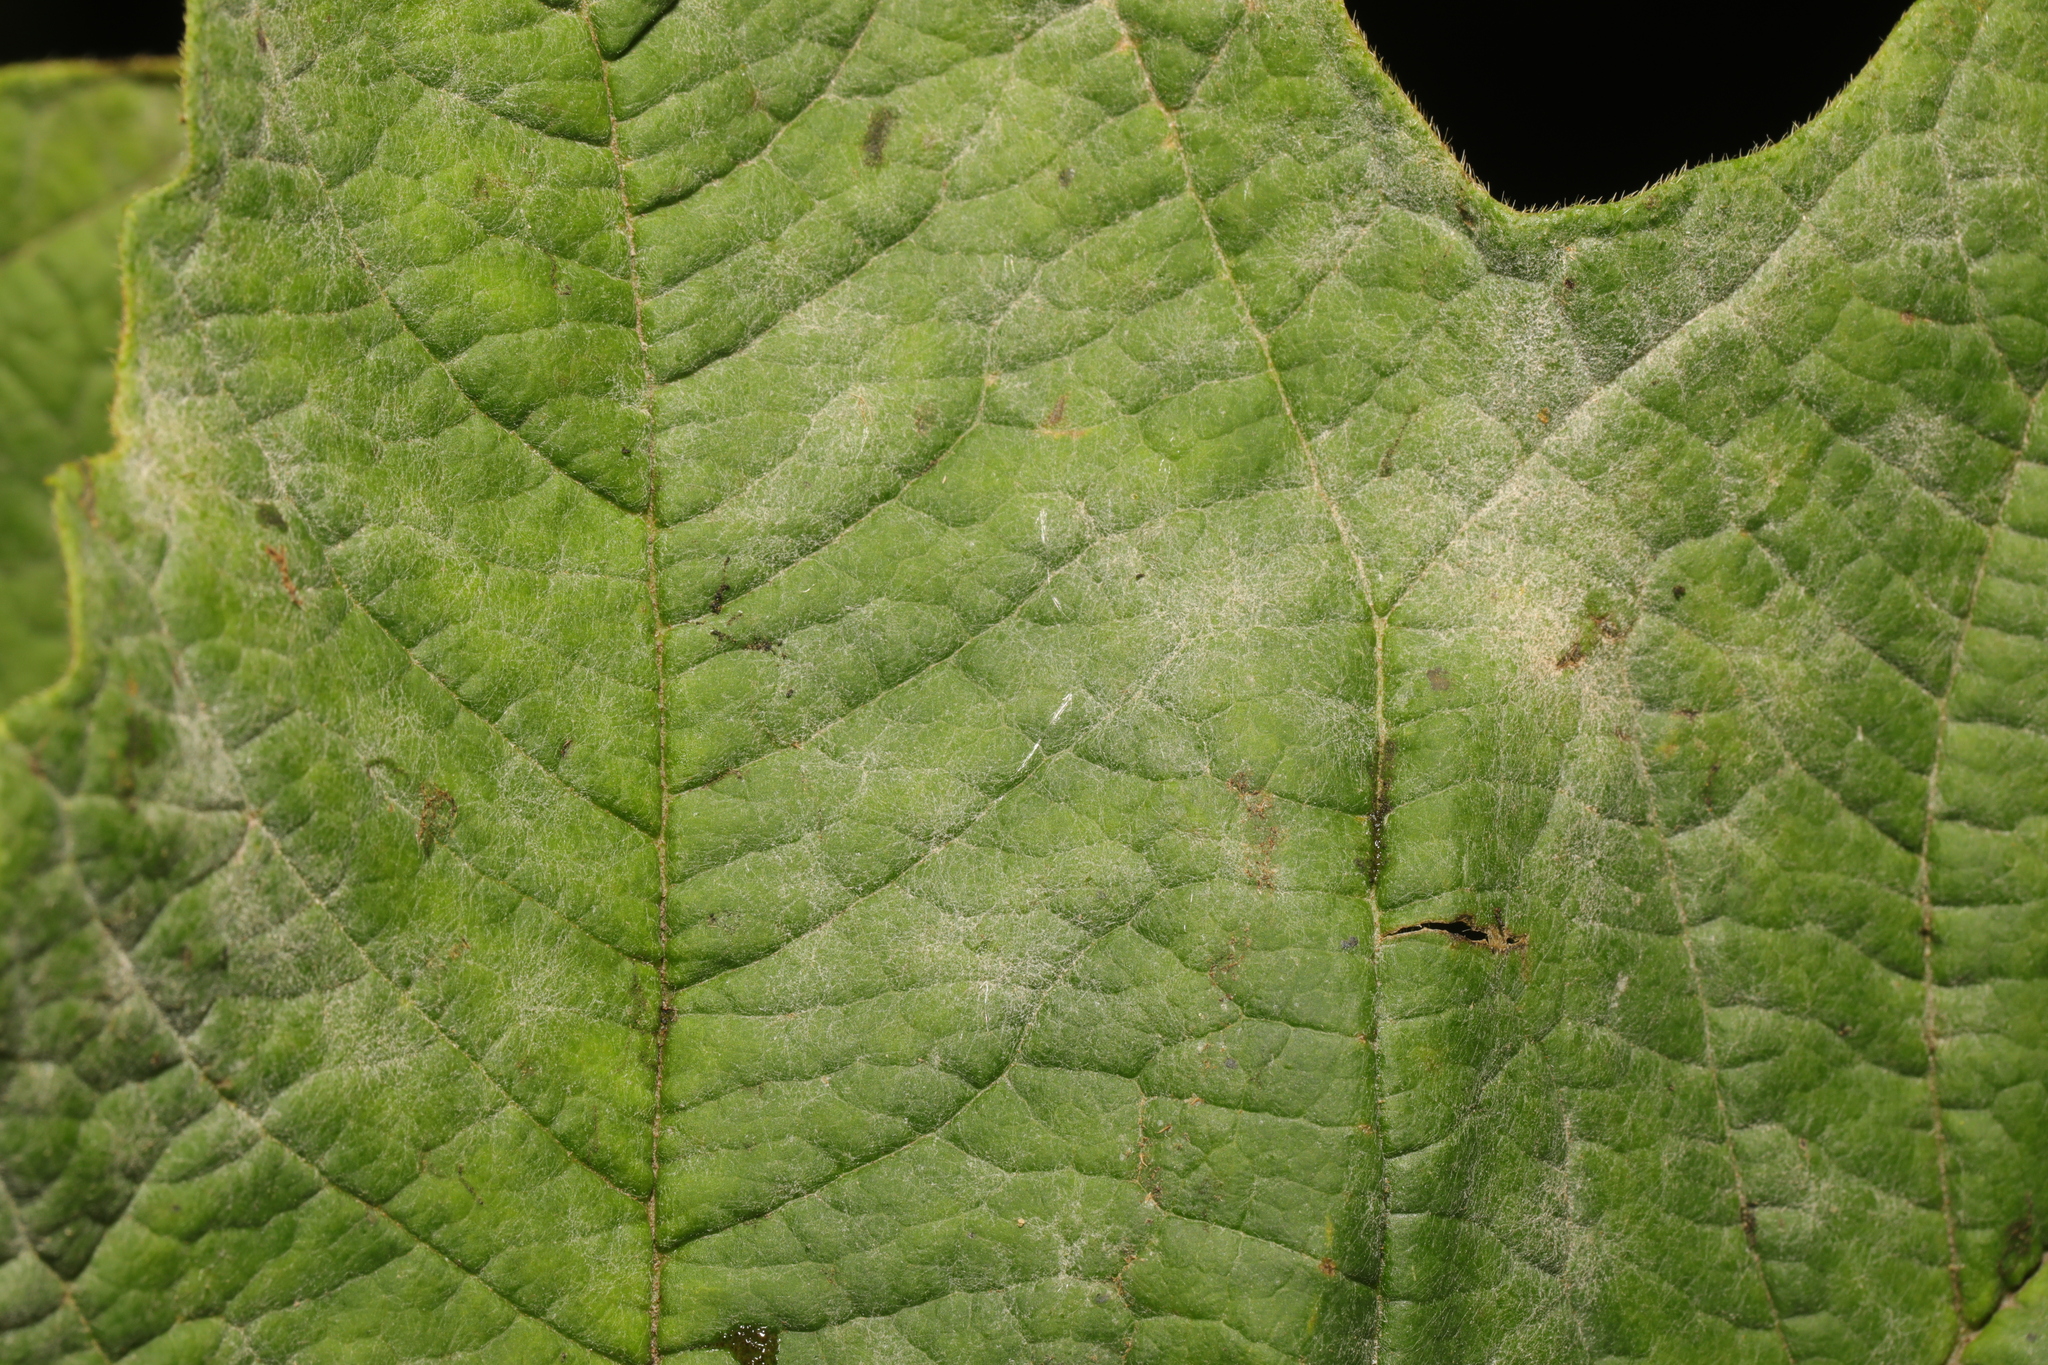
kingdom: Fungi
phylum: Ascomycota
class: Leotiomycetes
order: Helotiales
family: Erysiphaceae
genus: Erysiphe
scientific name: Erysiphe viburni
